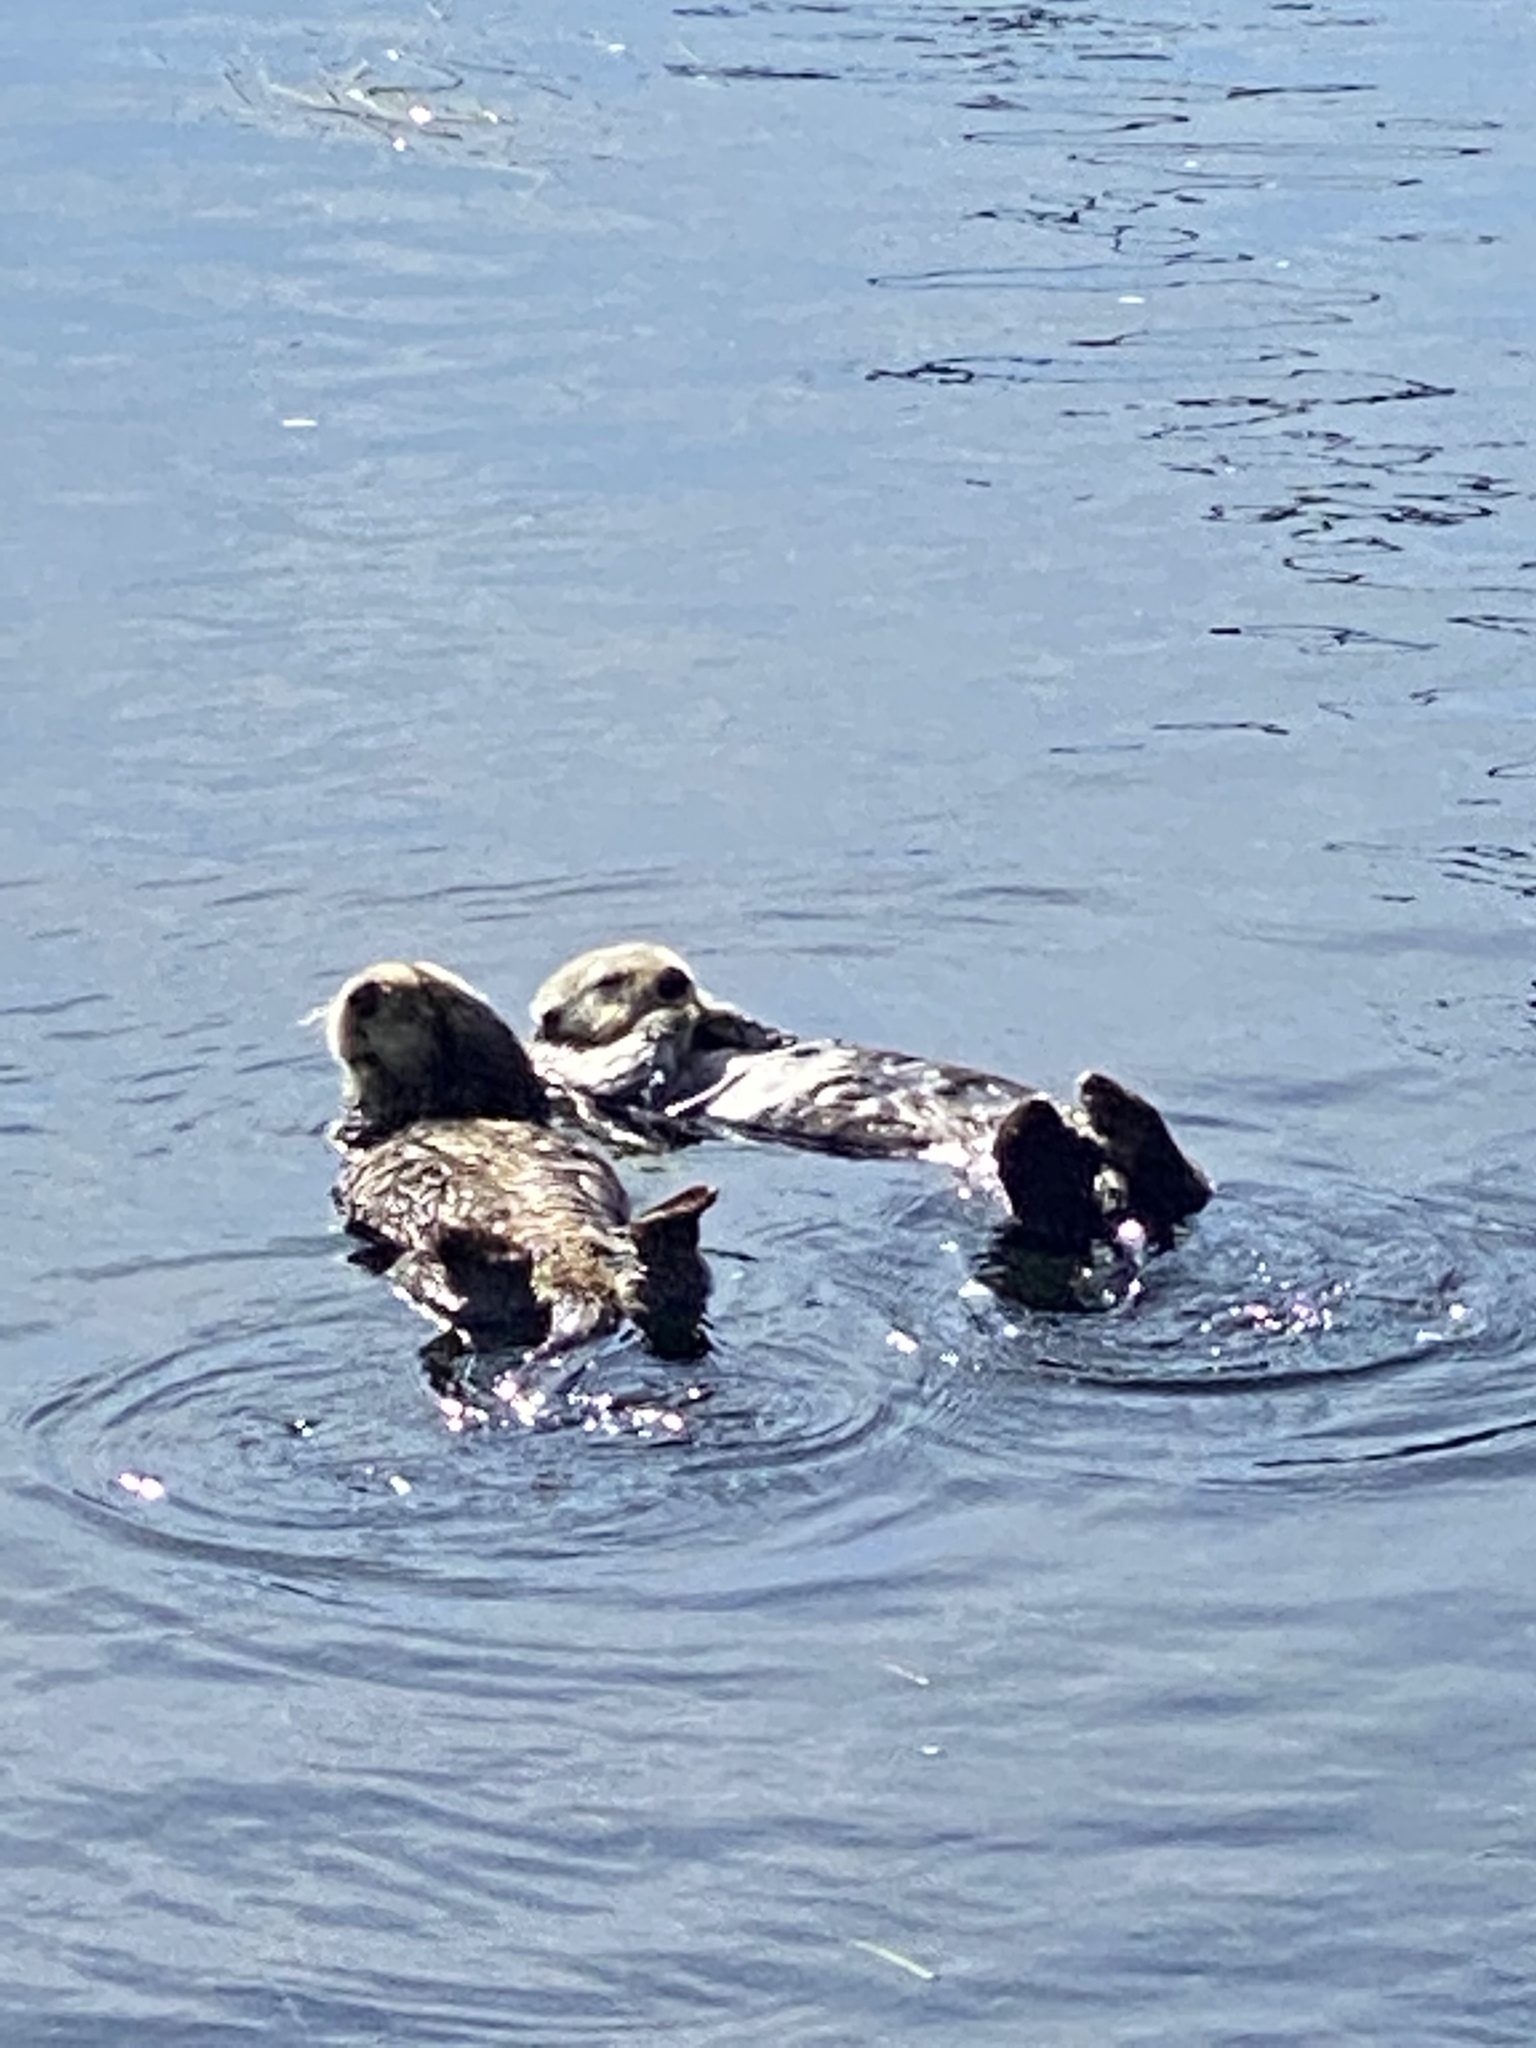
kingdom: Animalia
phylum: Chordata
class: Mammalia
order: Carnivora
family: Mustelidae
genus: Enhydra
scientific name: Enhydra lutris
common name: Sea otter
